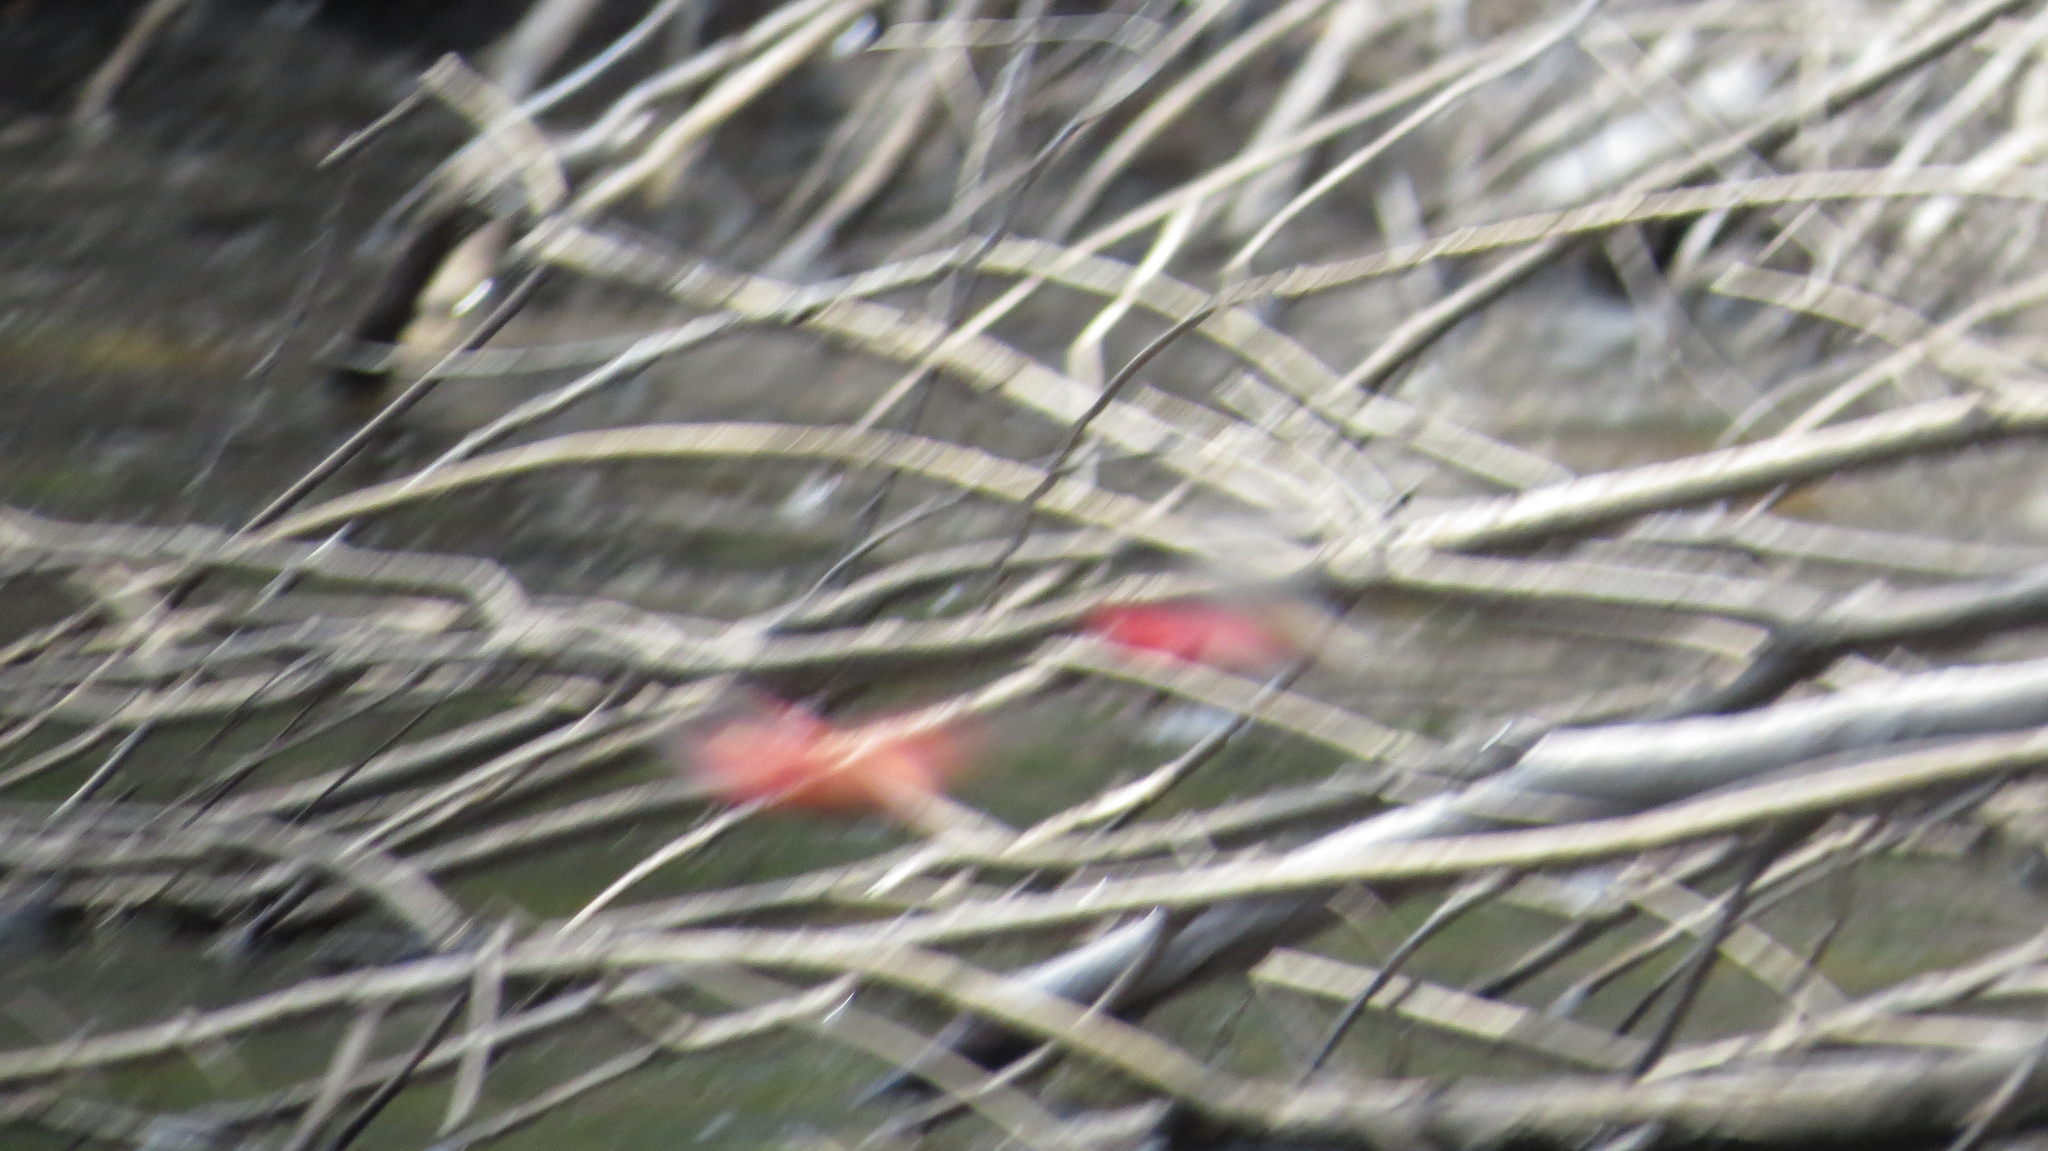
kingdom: Animalia
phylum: Arthropoda
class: Insecta
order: Odonata
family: Libellulidae
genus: Tramea
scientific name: Tramea eurybia
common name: Dune glider
